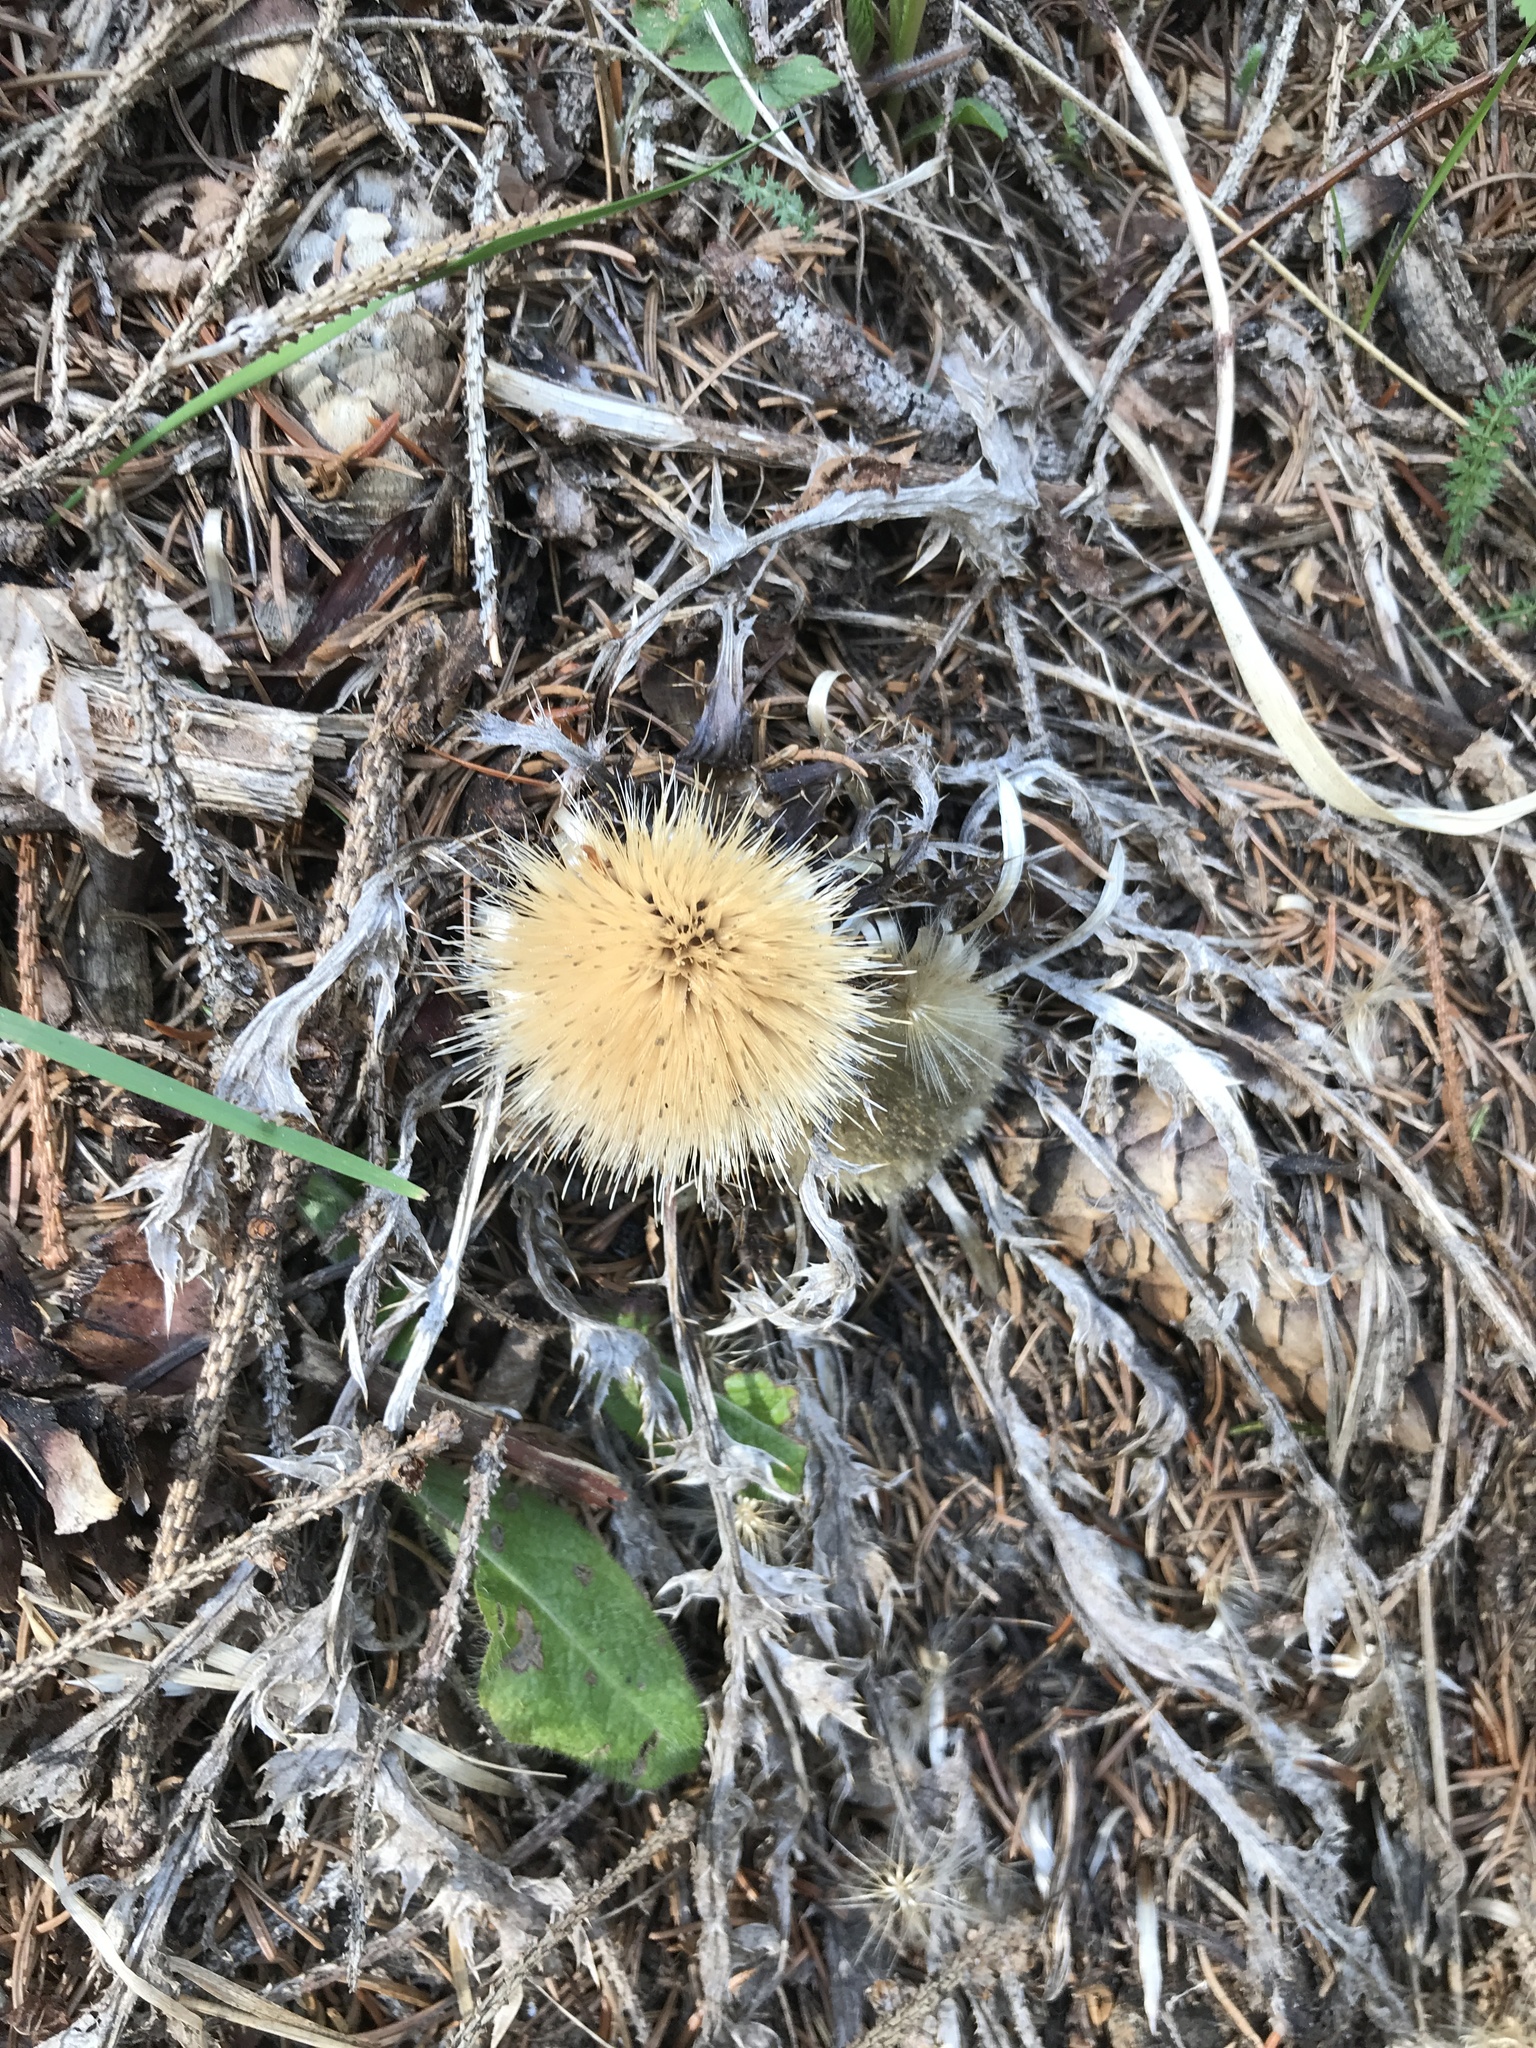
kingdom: Plantae
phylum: Tracheophyta
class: Magnoliopsida
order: Asterales
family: Asteraceae
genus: Carlina
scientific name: Carlina acaulis
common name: Stemless carline thistle
